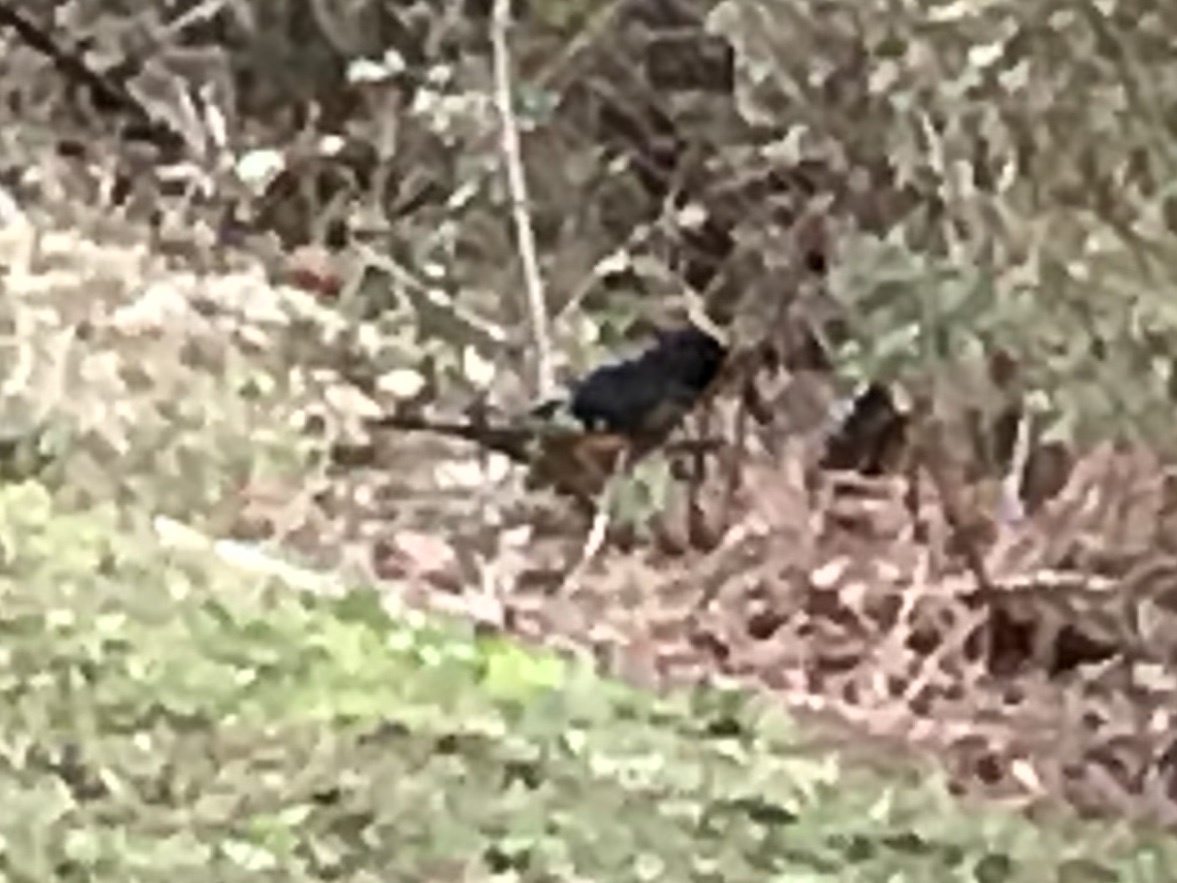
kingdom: Animalia
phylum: Chordata
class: Aves
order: Passeriformes
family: Passerellidae
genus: Pipilo
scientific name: Pipilo erythrophthalmus
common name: Eastern towhee
